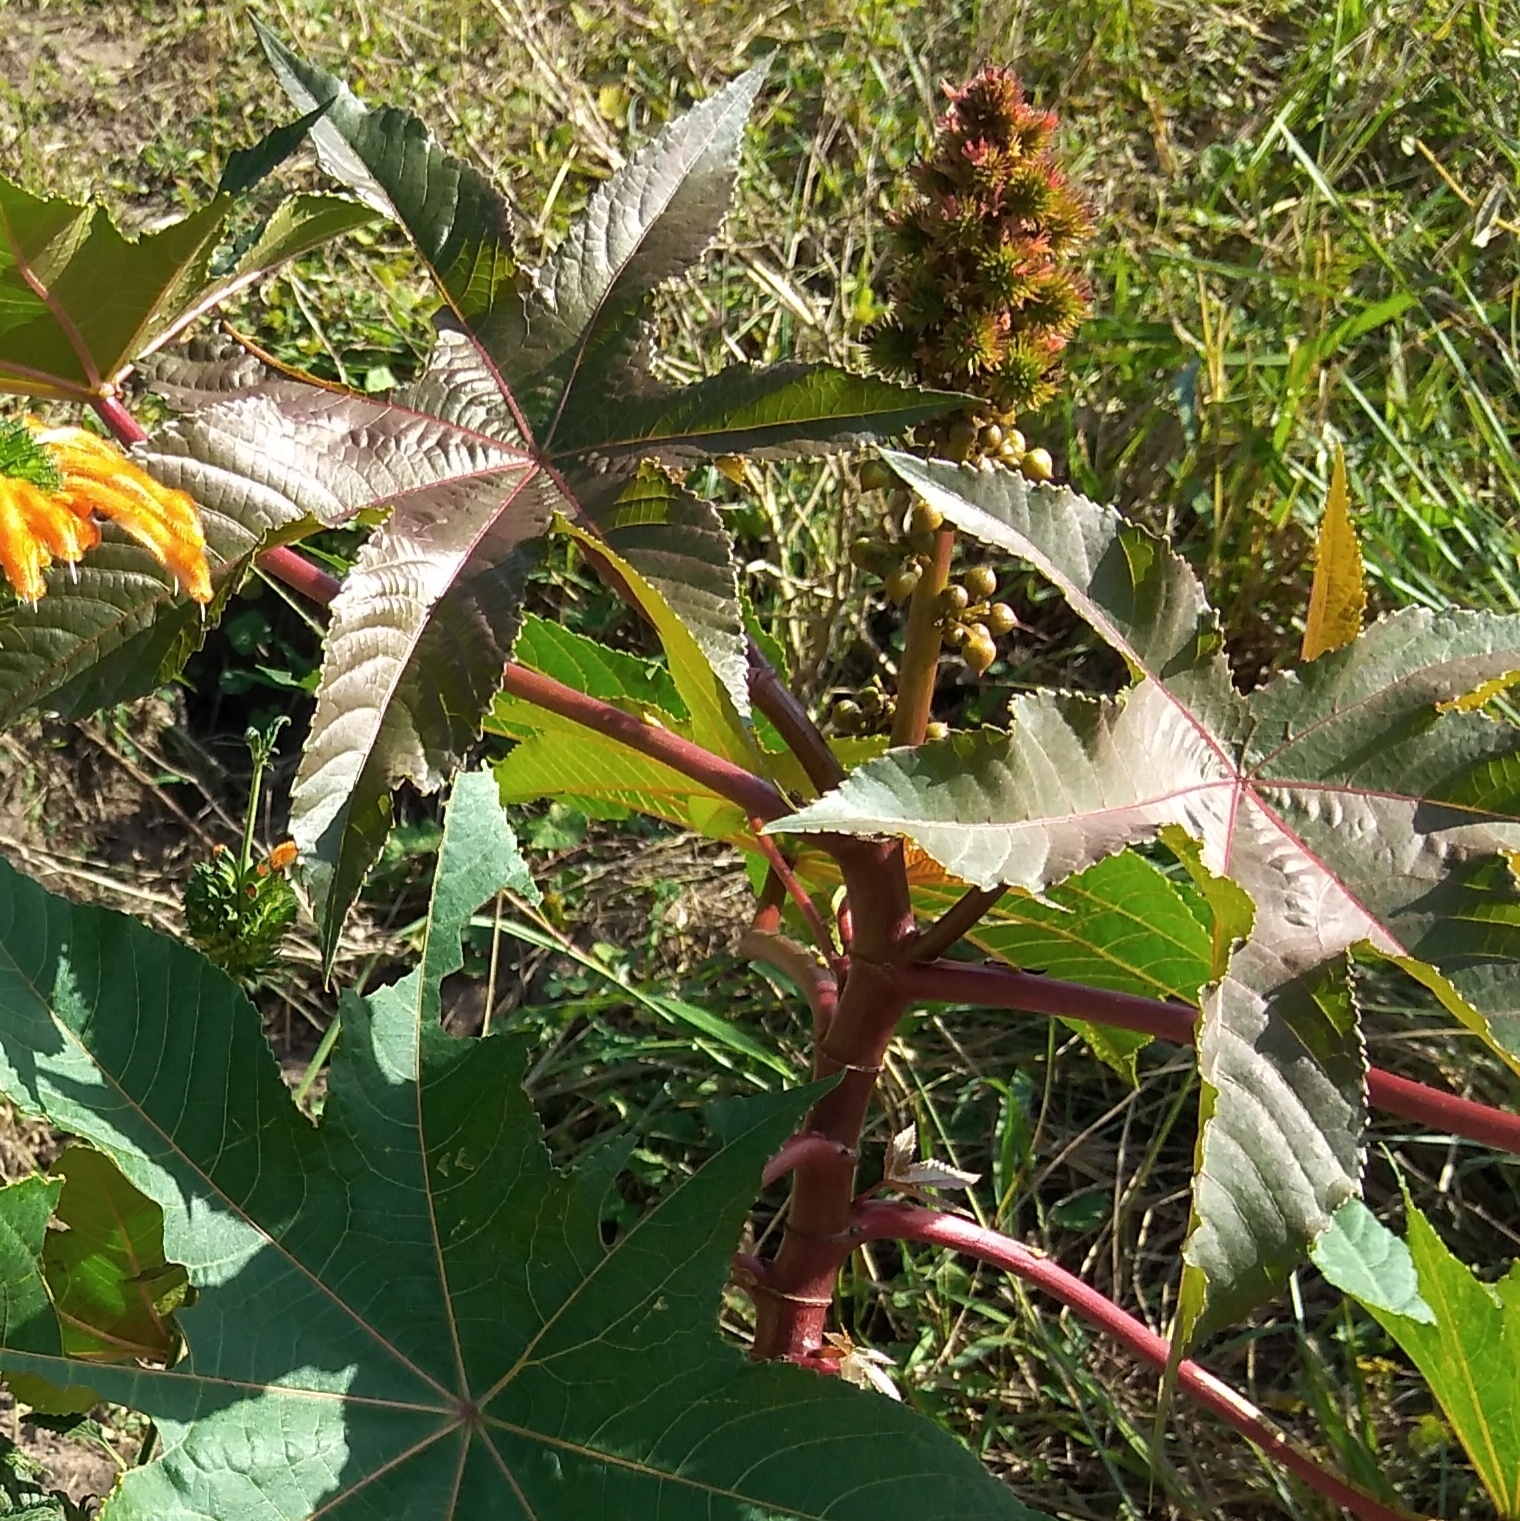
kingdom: Plantae
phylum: Tracheophyta
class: Magnoliopsida
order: Malpighiales
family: Euphorbiaceae
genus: Ricinus
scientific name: Ricinus communis
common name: Castor-oil-plant
